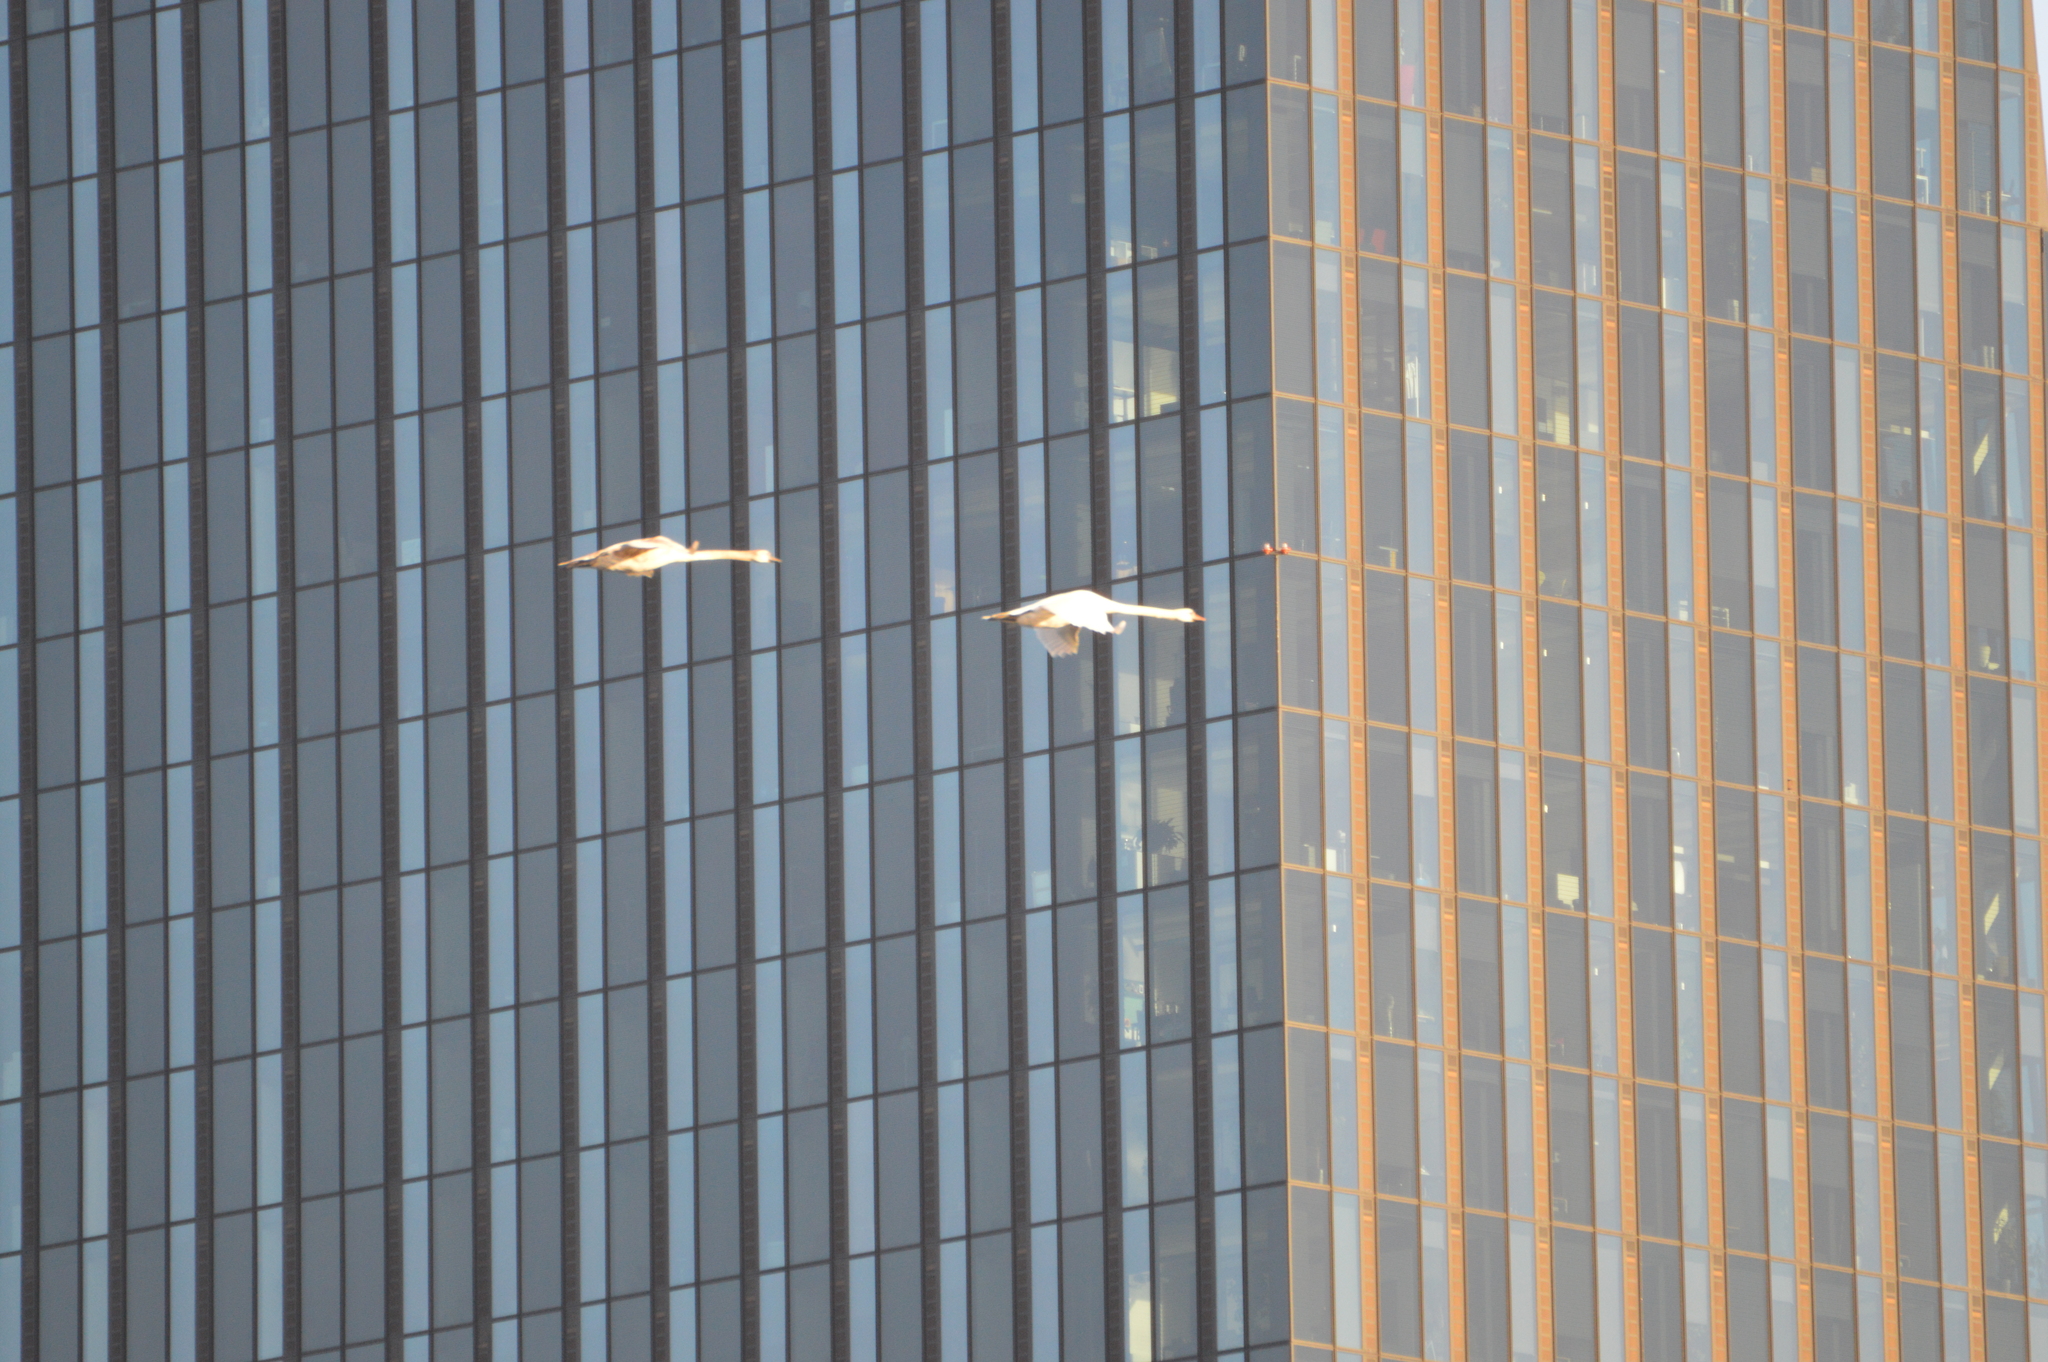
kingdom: Animalia
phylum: Chordata
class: Aves
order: Anseriformes
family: Anatidae
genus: Cygnus
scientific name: Cygnus olor
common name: Mute swan
